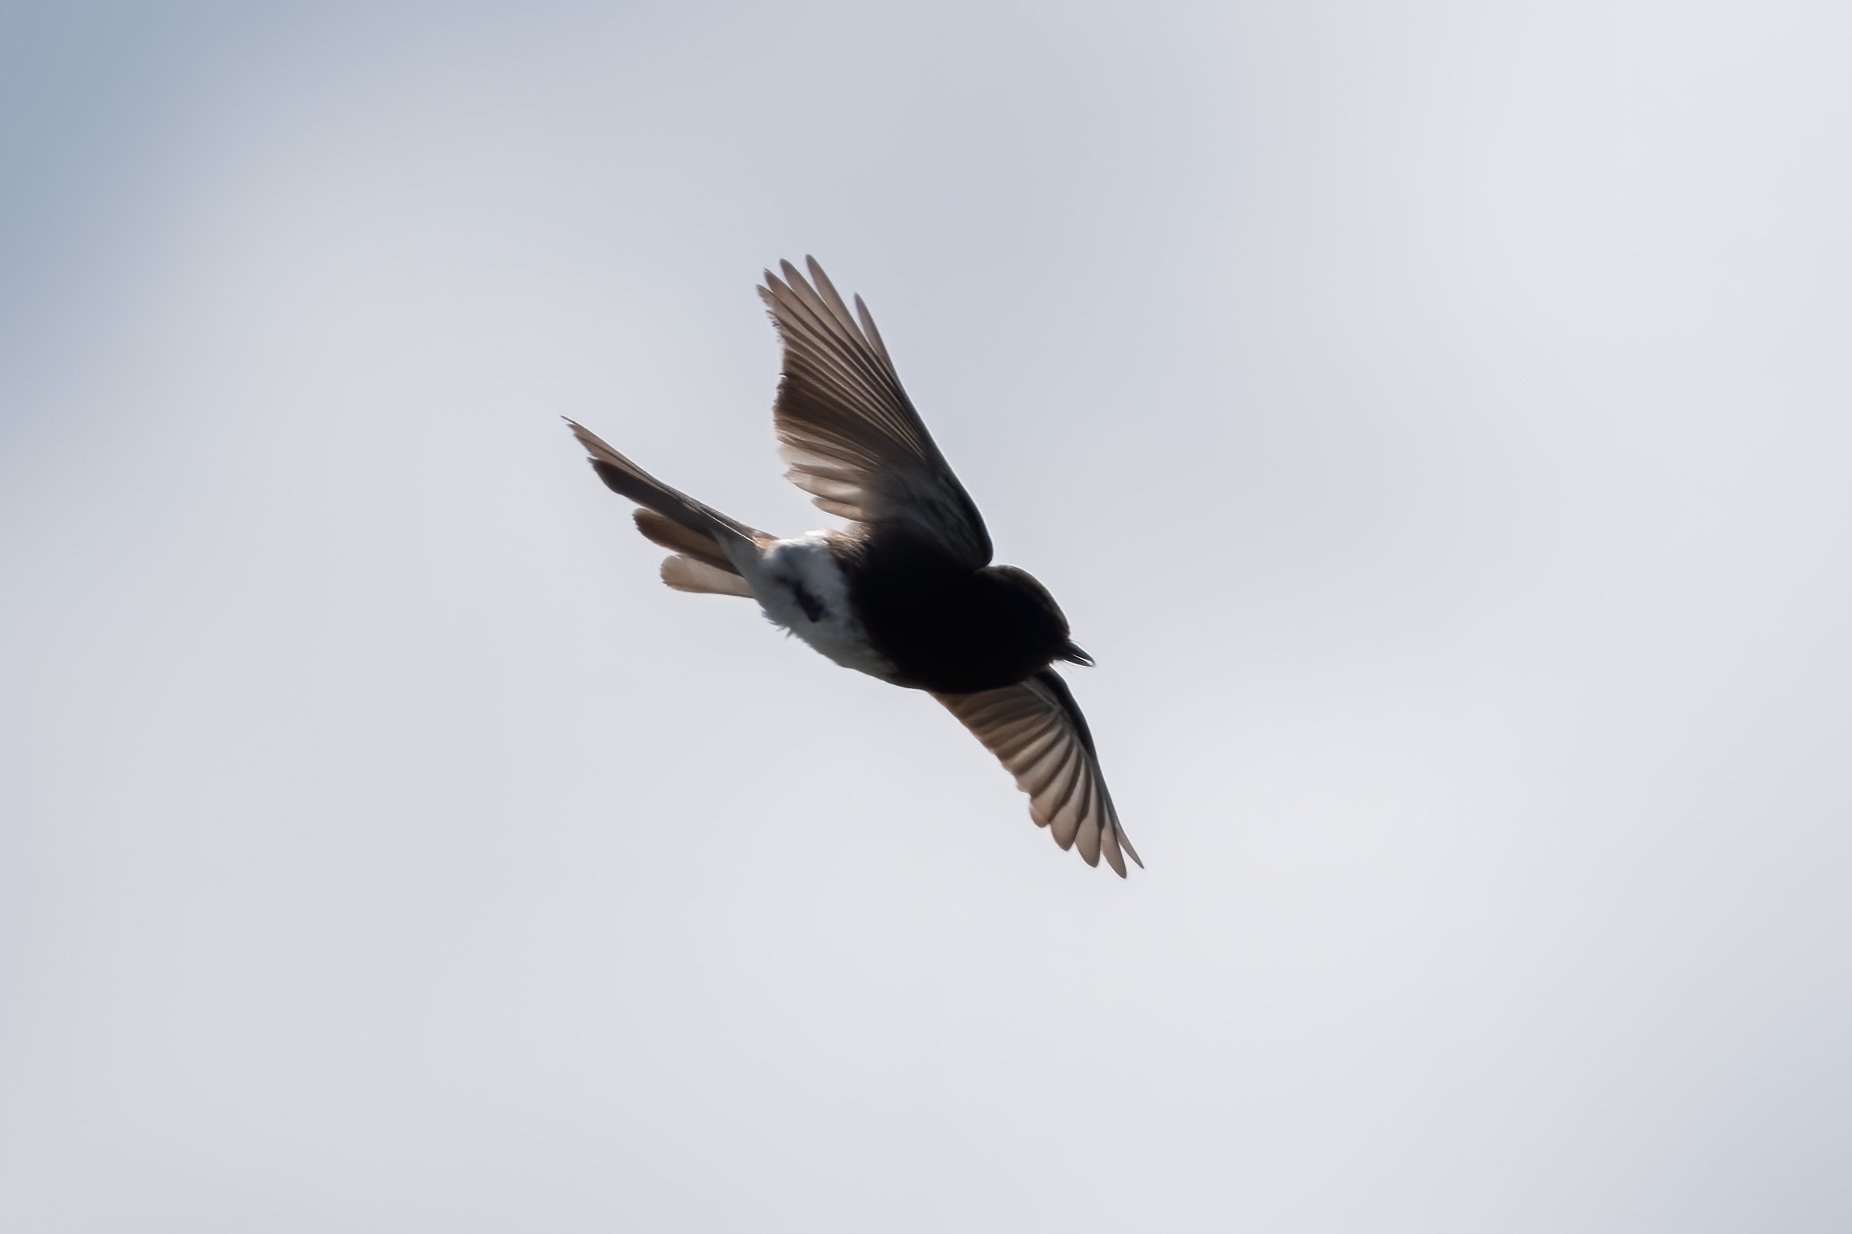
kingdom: Animalia
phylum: Chordata
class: Aves
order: Passeriformes
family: Tyrannidae
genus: Sayornis
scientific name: Sayornis nigricans
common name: Black phoebe
